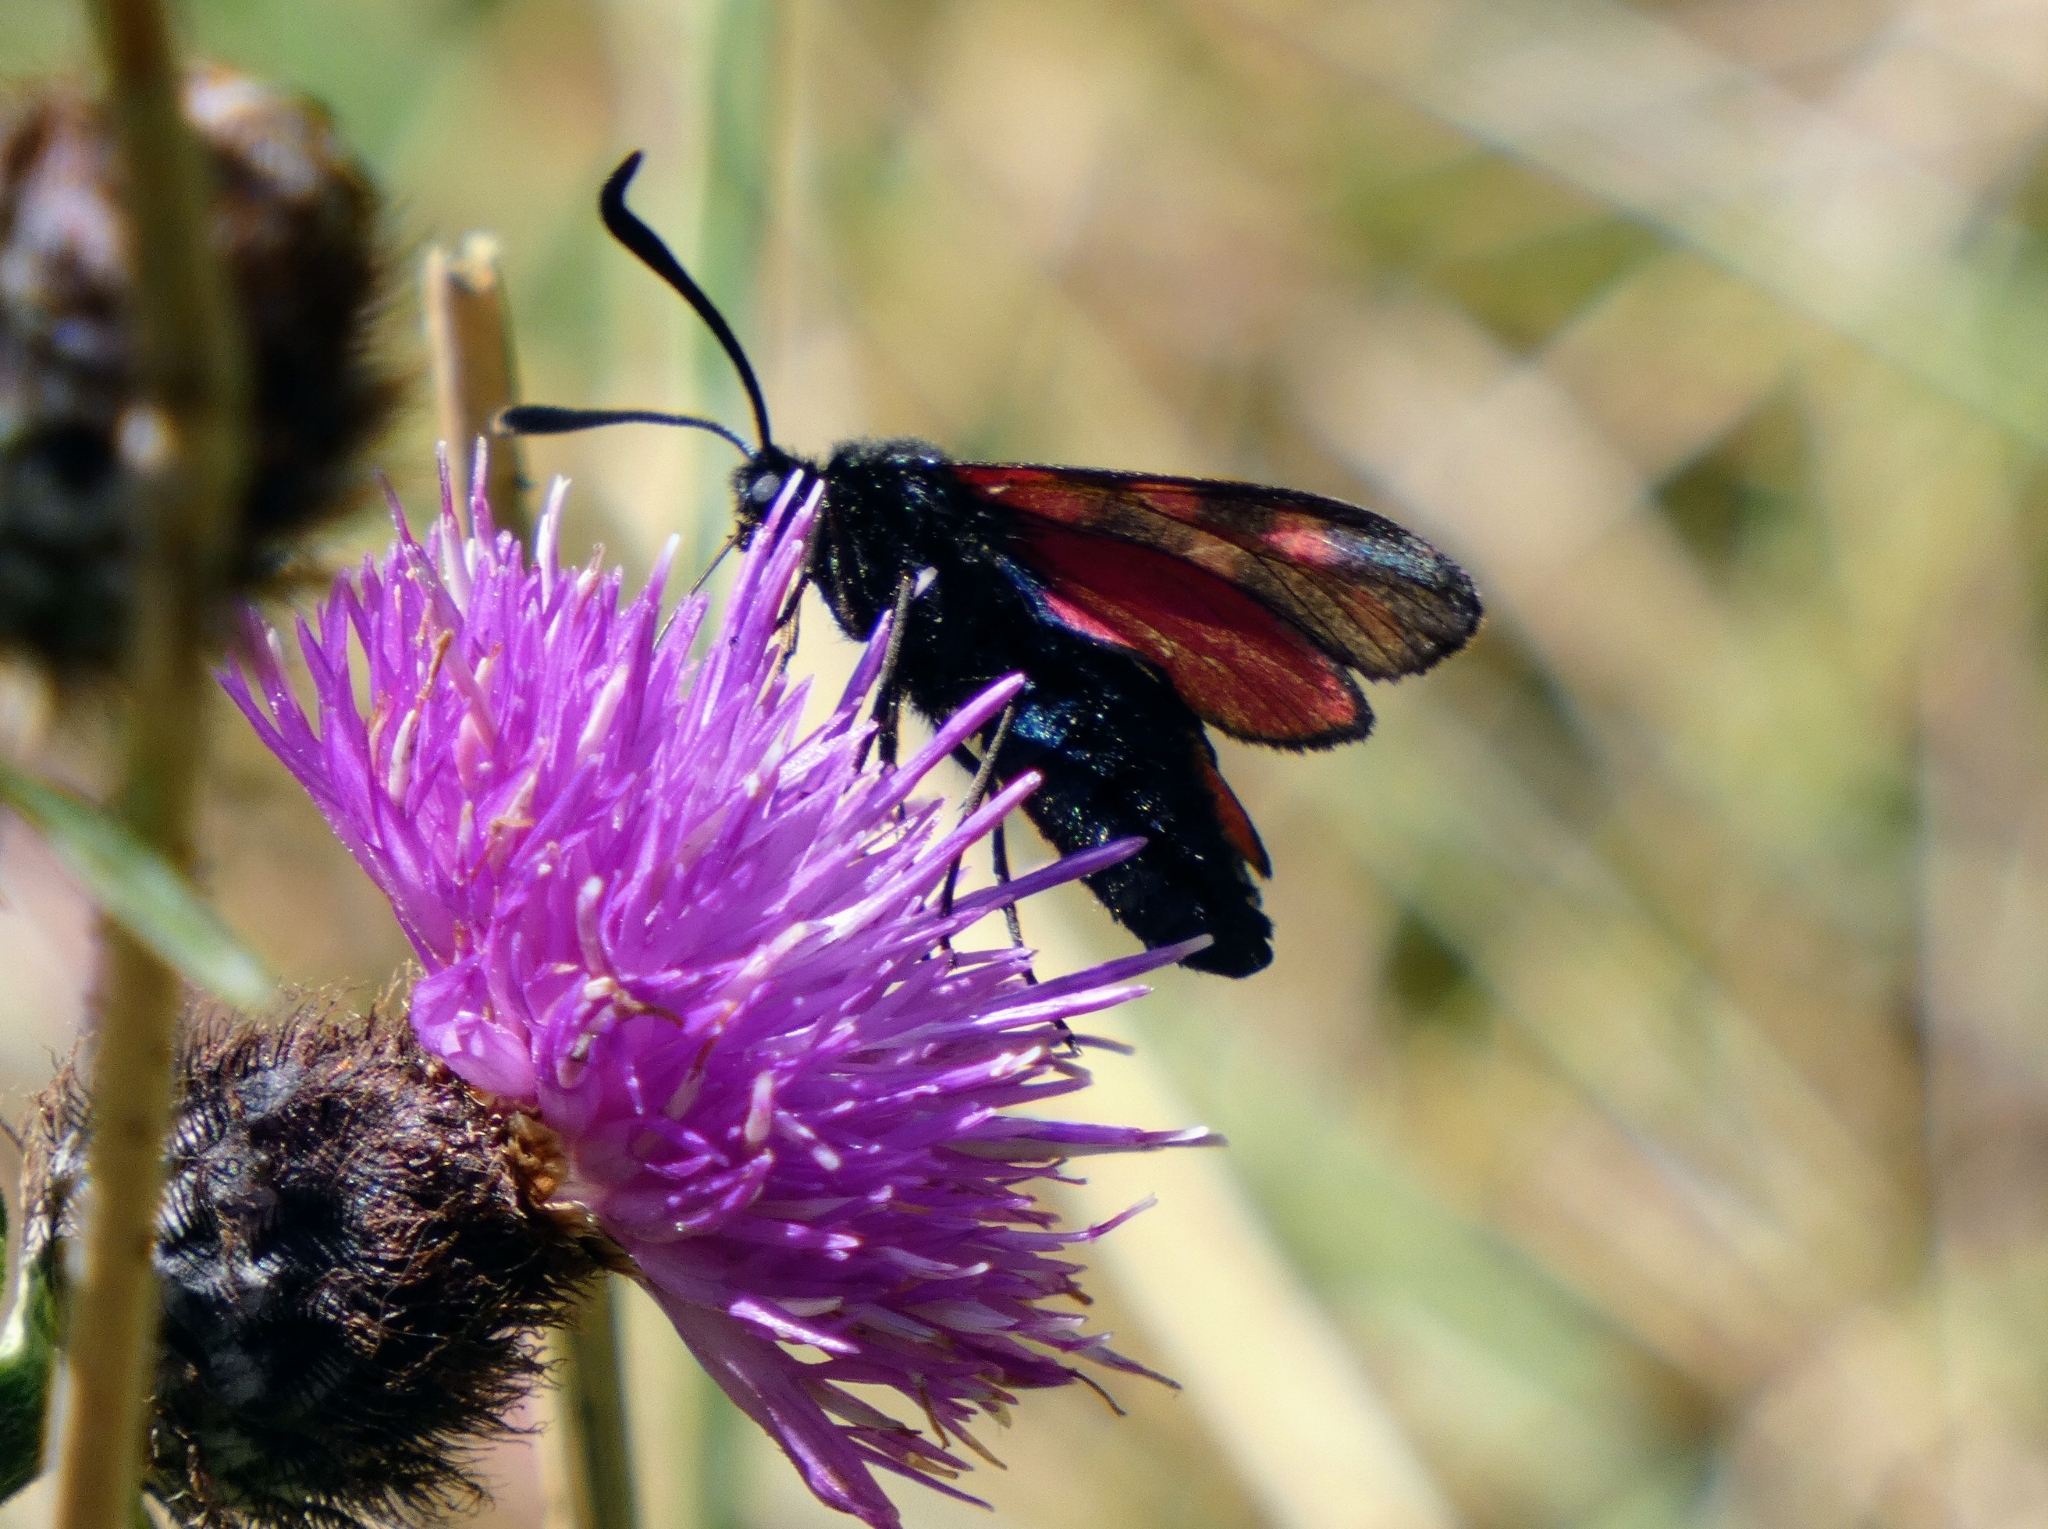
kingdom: Animalia
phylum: Arthropoda
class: Insecta
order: Lepidoptera
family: Zygaenidae
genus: Zygaena
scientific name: Zygaena filipendulae
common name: Six-spot burnet
